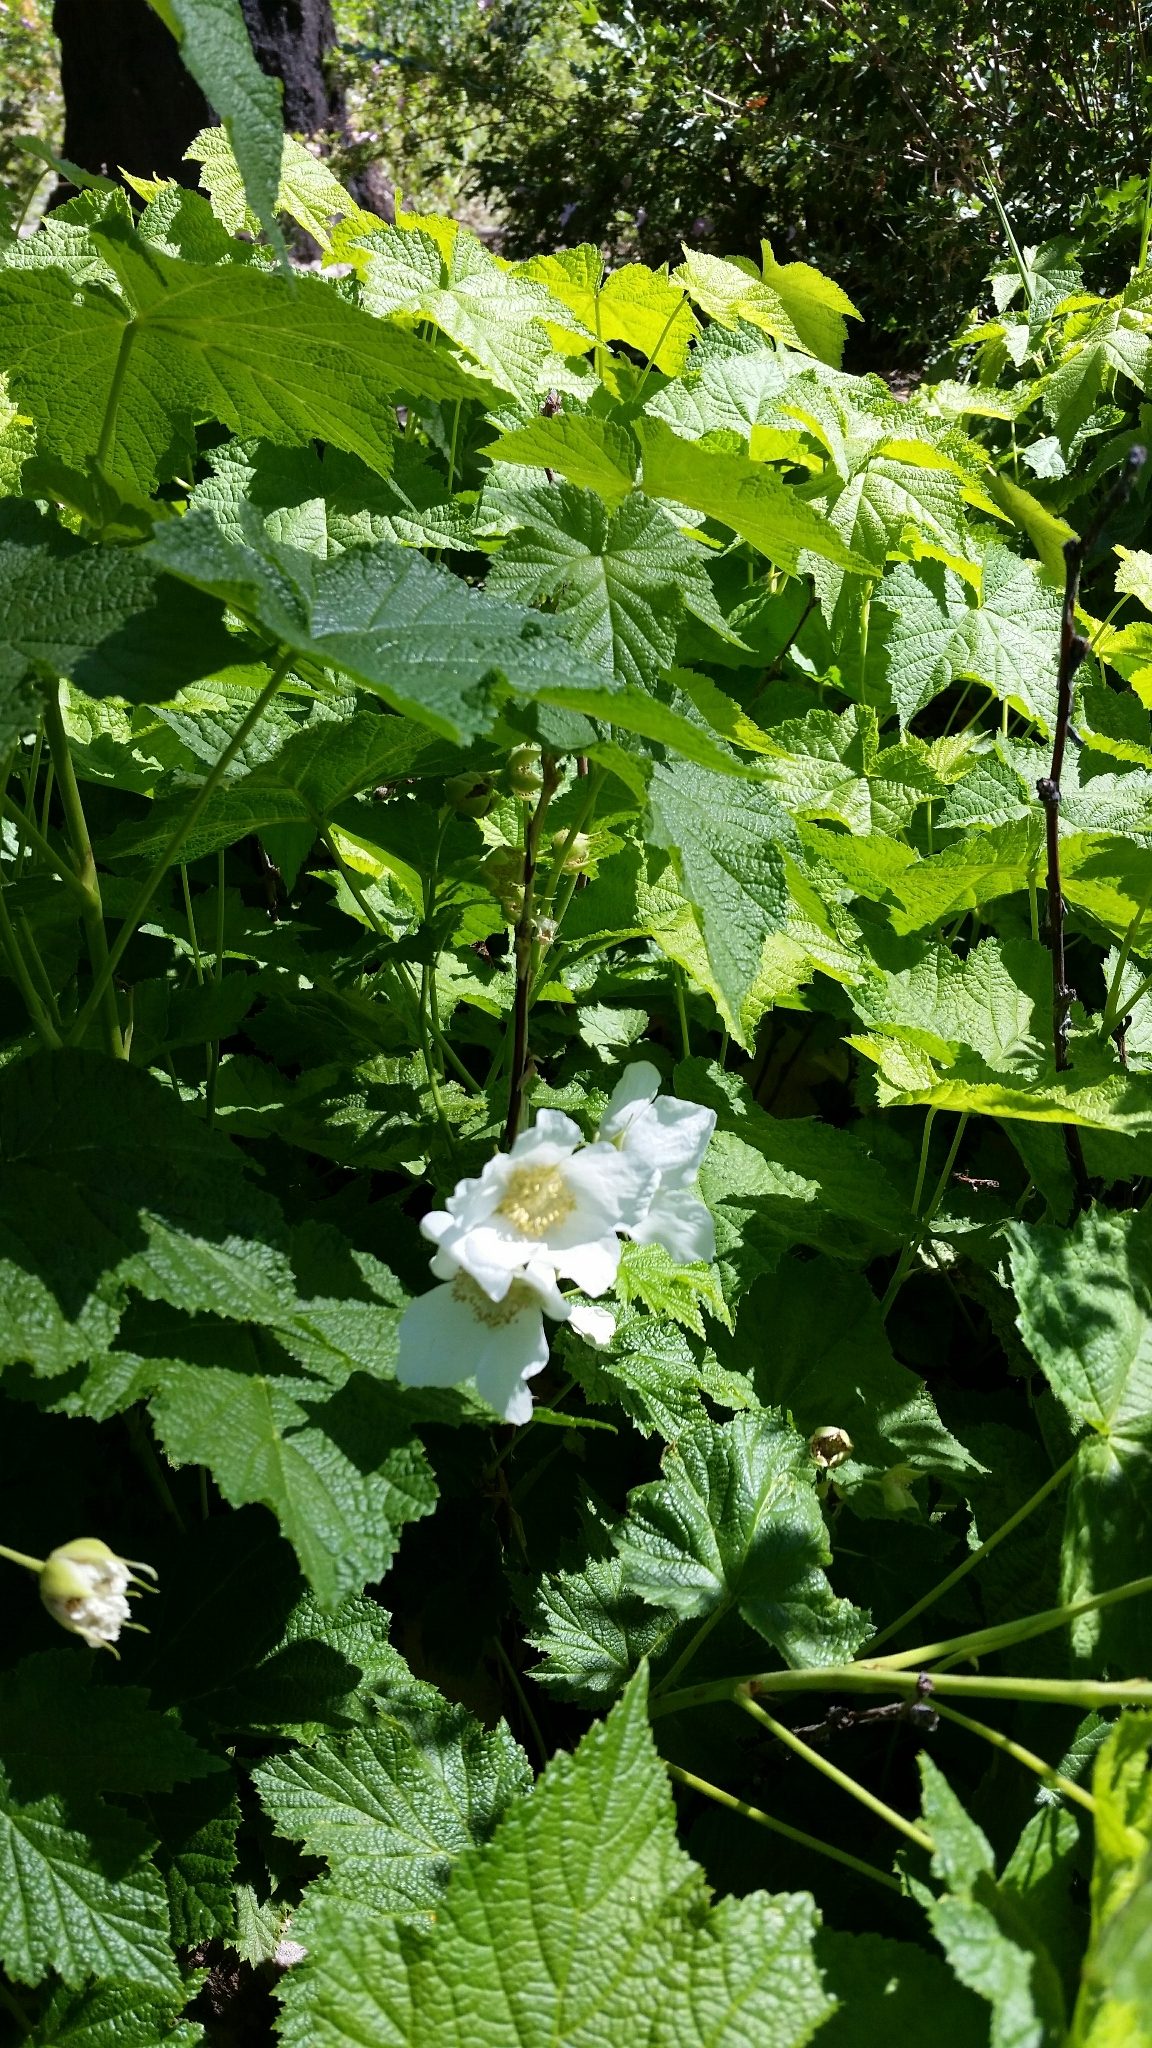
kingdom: Plantae
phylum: Tracheophyta
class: Magnoliopsida
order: Rosales
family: Rosaceae
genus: Rubus
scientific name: Rubus parviflorus
